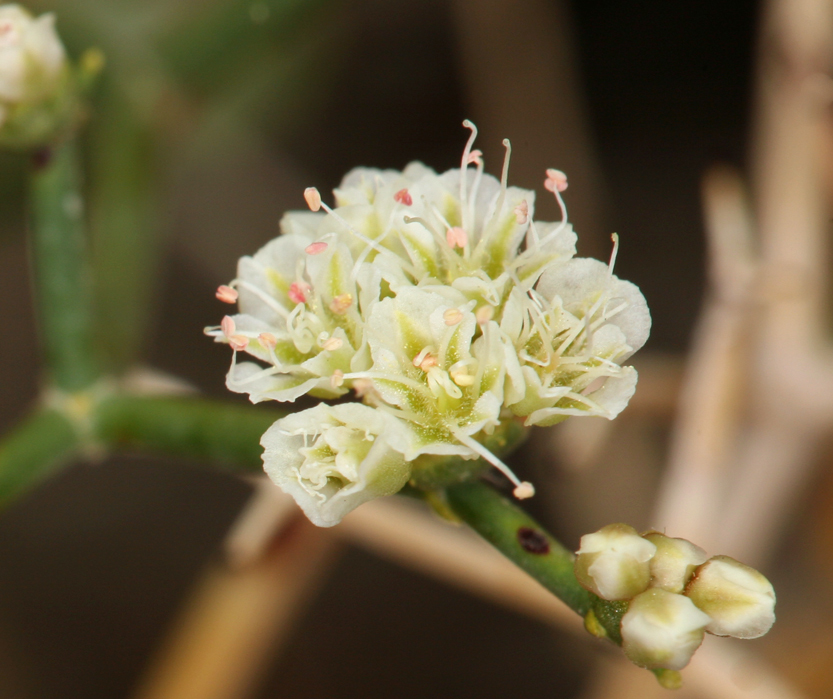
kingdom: Plantae
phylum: Tracheophyta
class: Magnoliopsida
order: Caryophyllales
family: Polygonaceae
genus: Eriogonum
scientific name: Eriogonum heermannii
